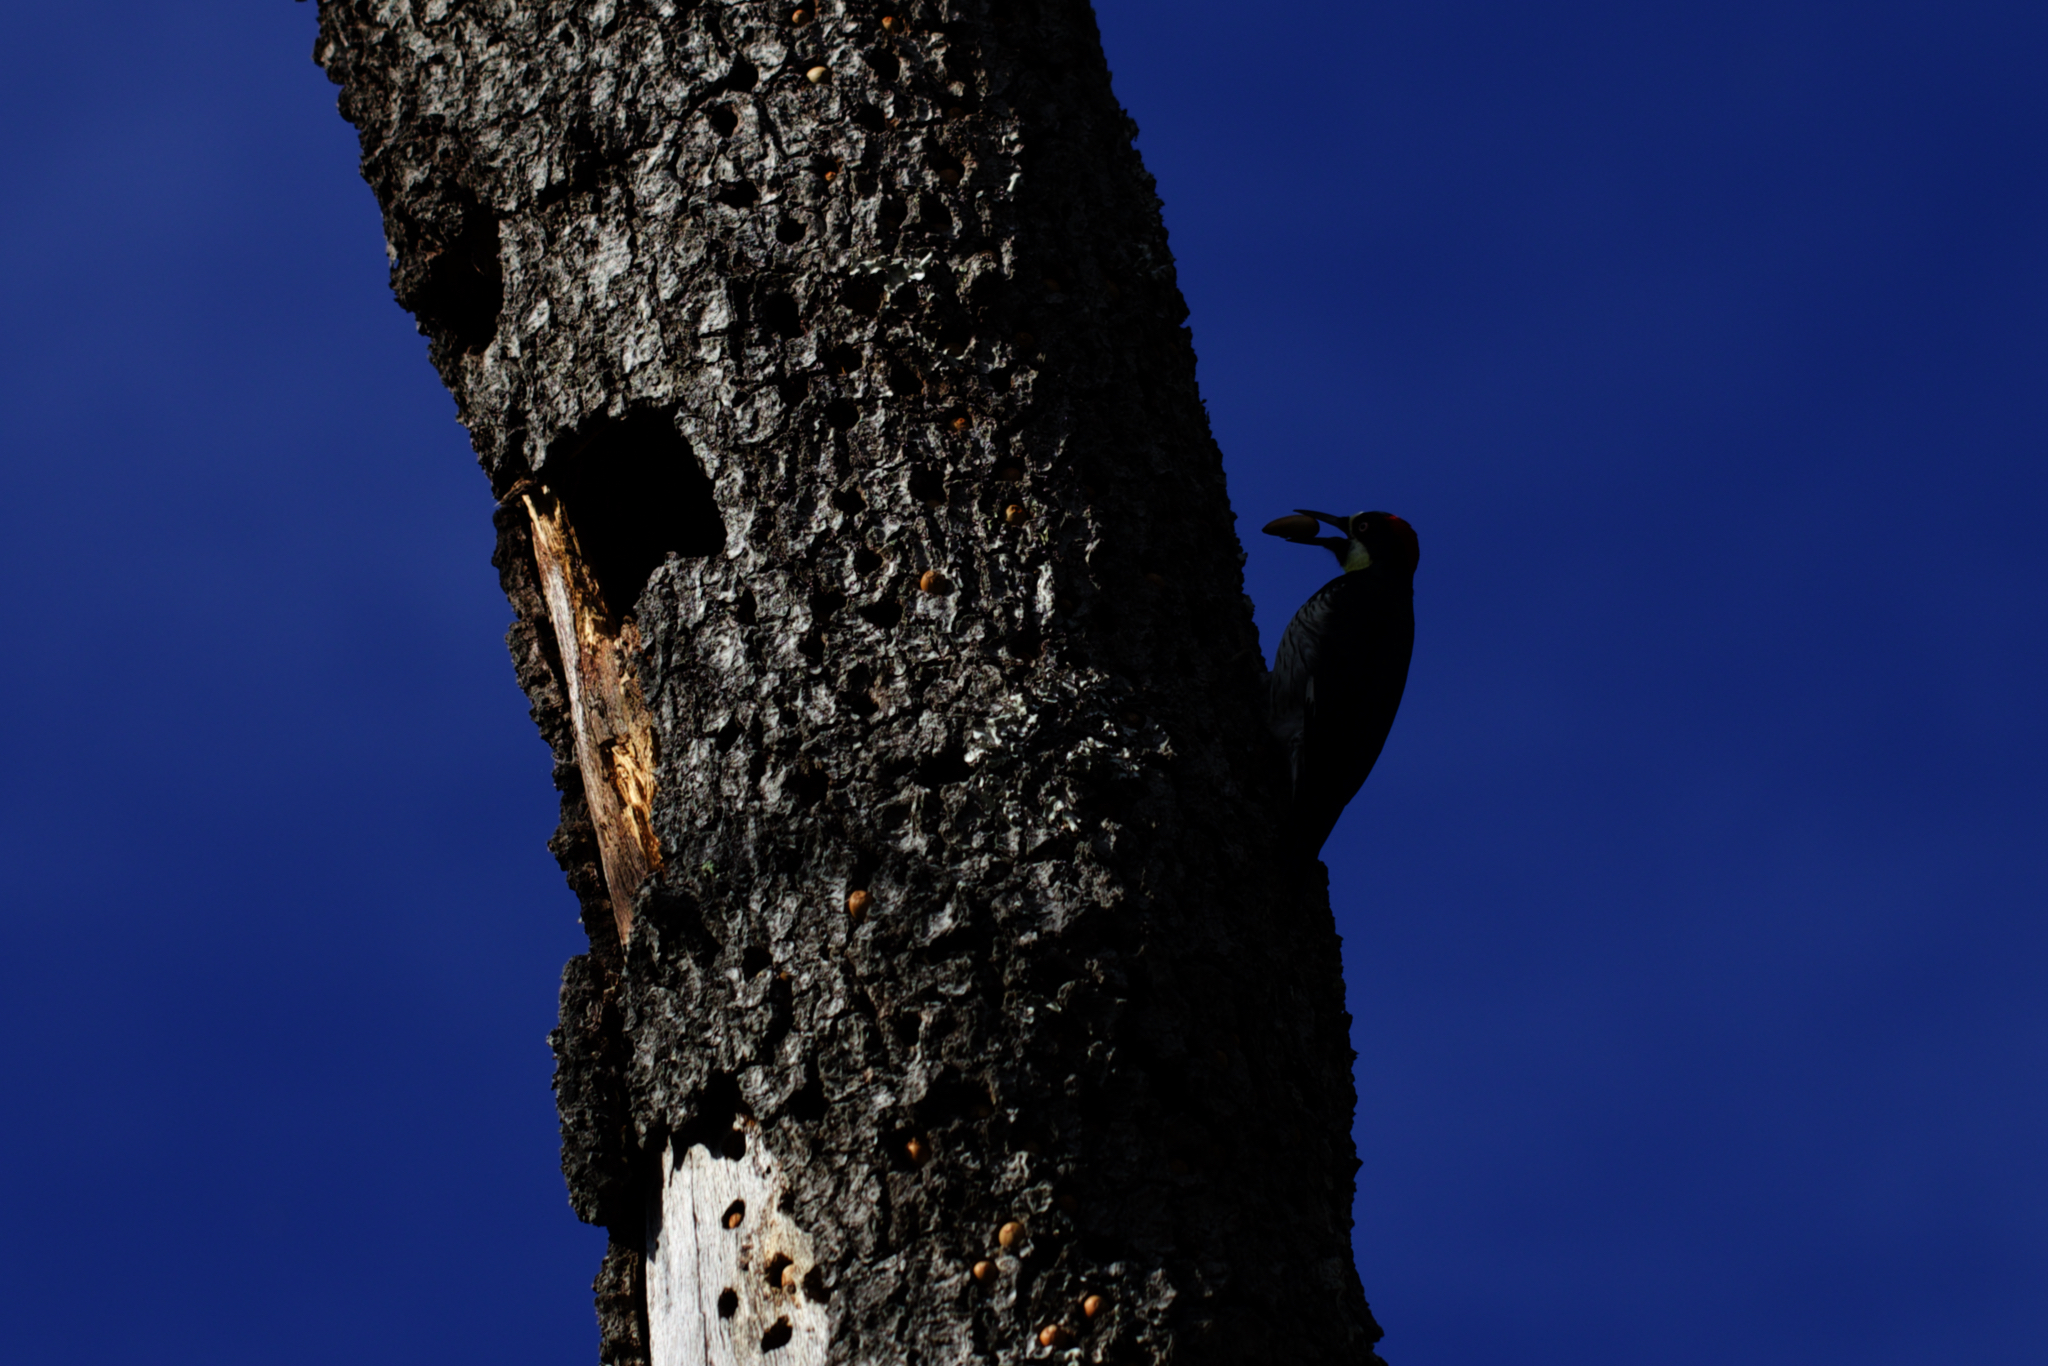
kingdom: Animalia
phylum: Chordata
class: Aves
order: Piciformes
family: Picidae
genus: Melanerpes
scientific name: Melanerpes formicivorus
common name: Acorn woodpecker
